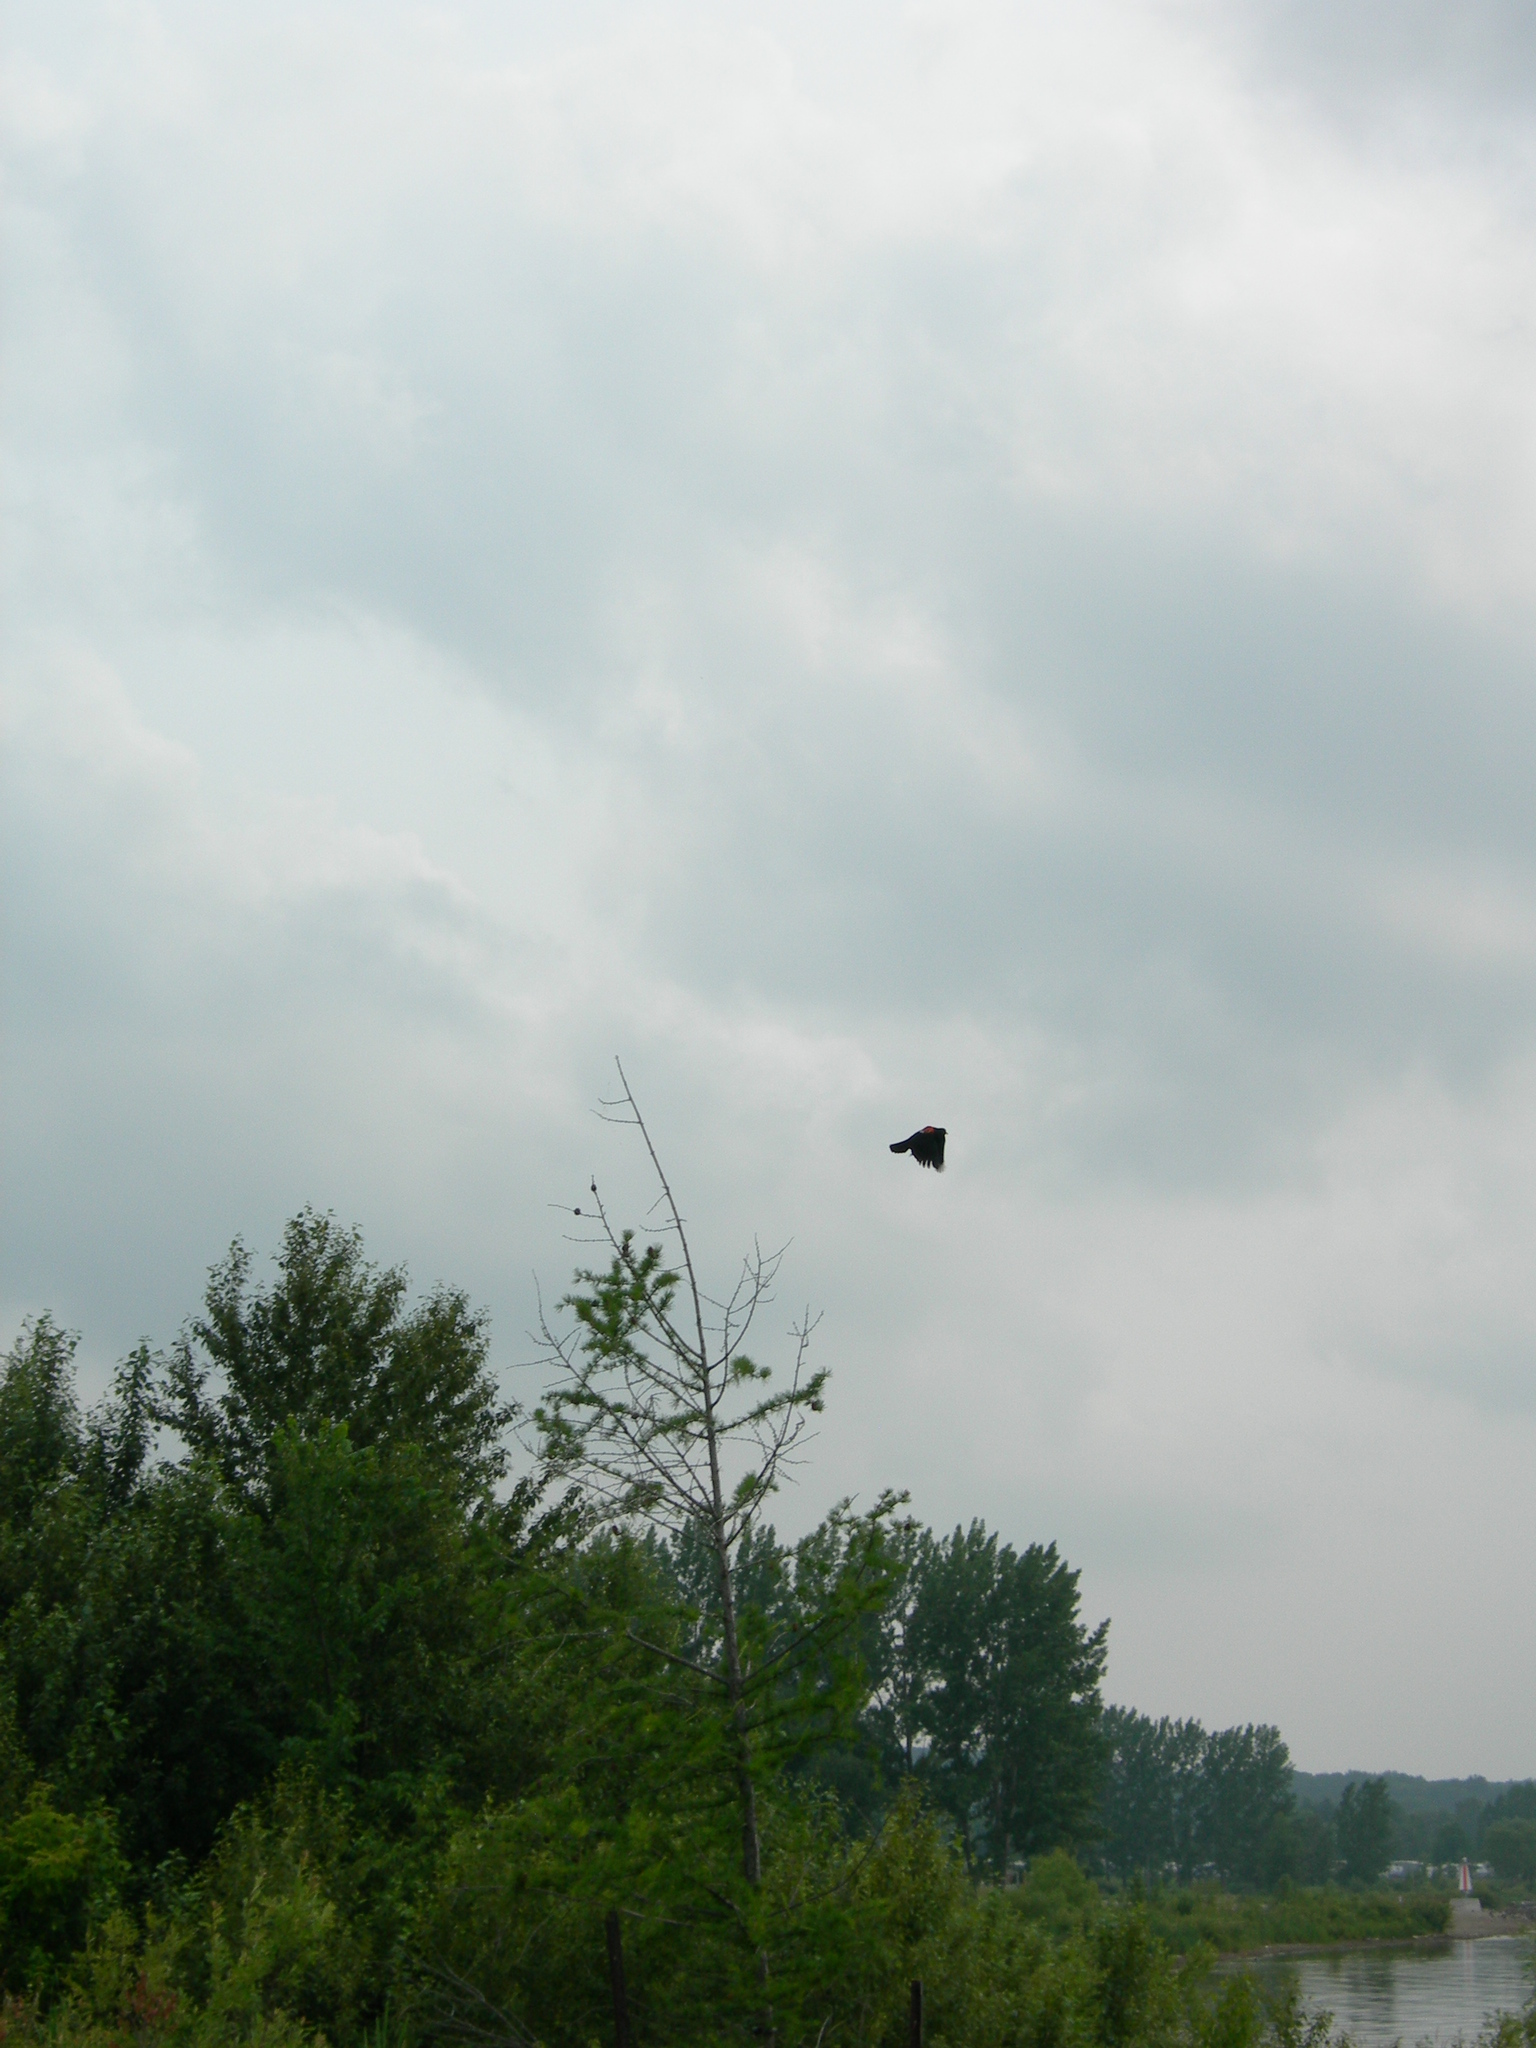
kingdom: Animalia
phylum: Chordata
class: Aves
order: Passeriformes
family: Icteridae
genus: Agelaius
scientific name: Agelaius phoeniceus
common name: Red-winged blackbird
